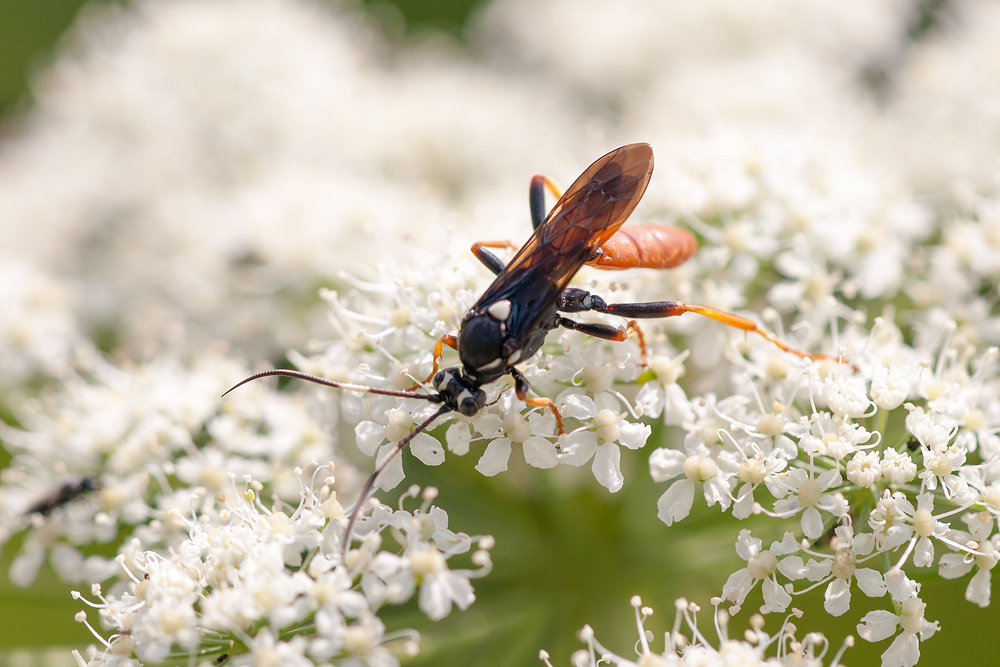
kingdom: Animalia
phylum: Arthropoda
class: Insecta
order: Hymenoptera
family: Ichneumonidae
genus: Amblyjoppa
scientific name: Amblyjoppa fuscipennis
